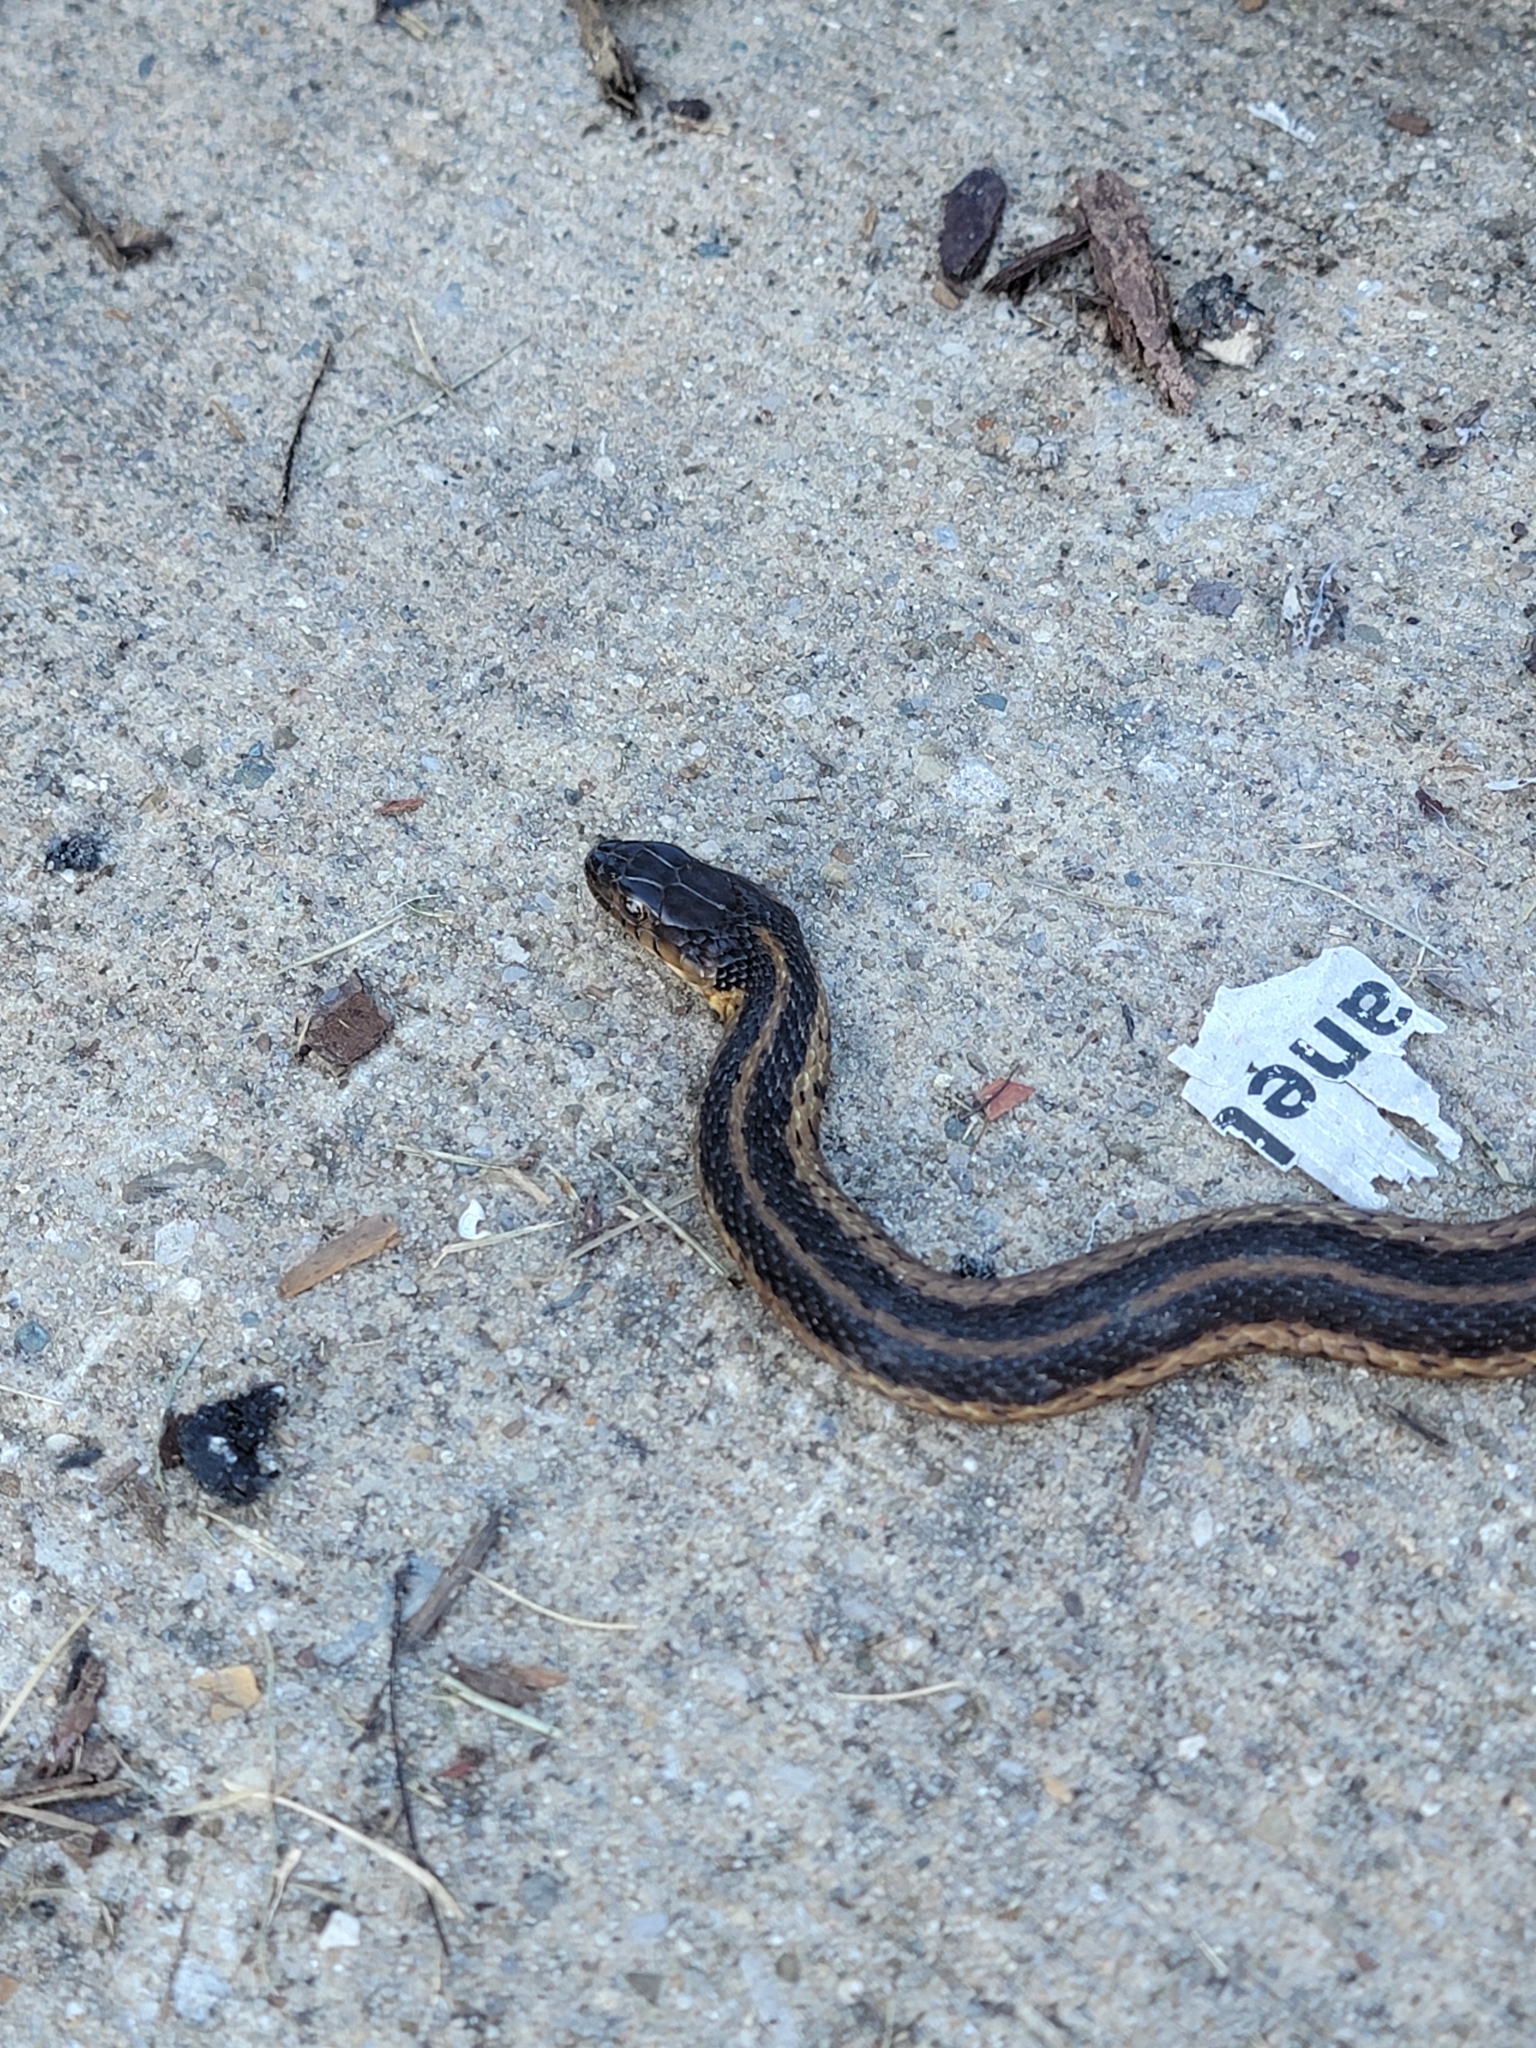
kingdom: Animalia
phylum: Chordata
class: Squamata
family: Colubridae
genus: Thamnophis
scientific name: Thamnophis sirtalis
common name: Common garter snake
